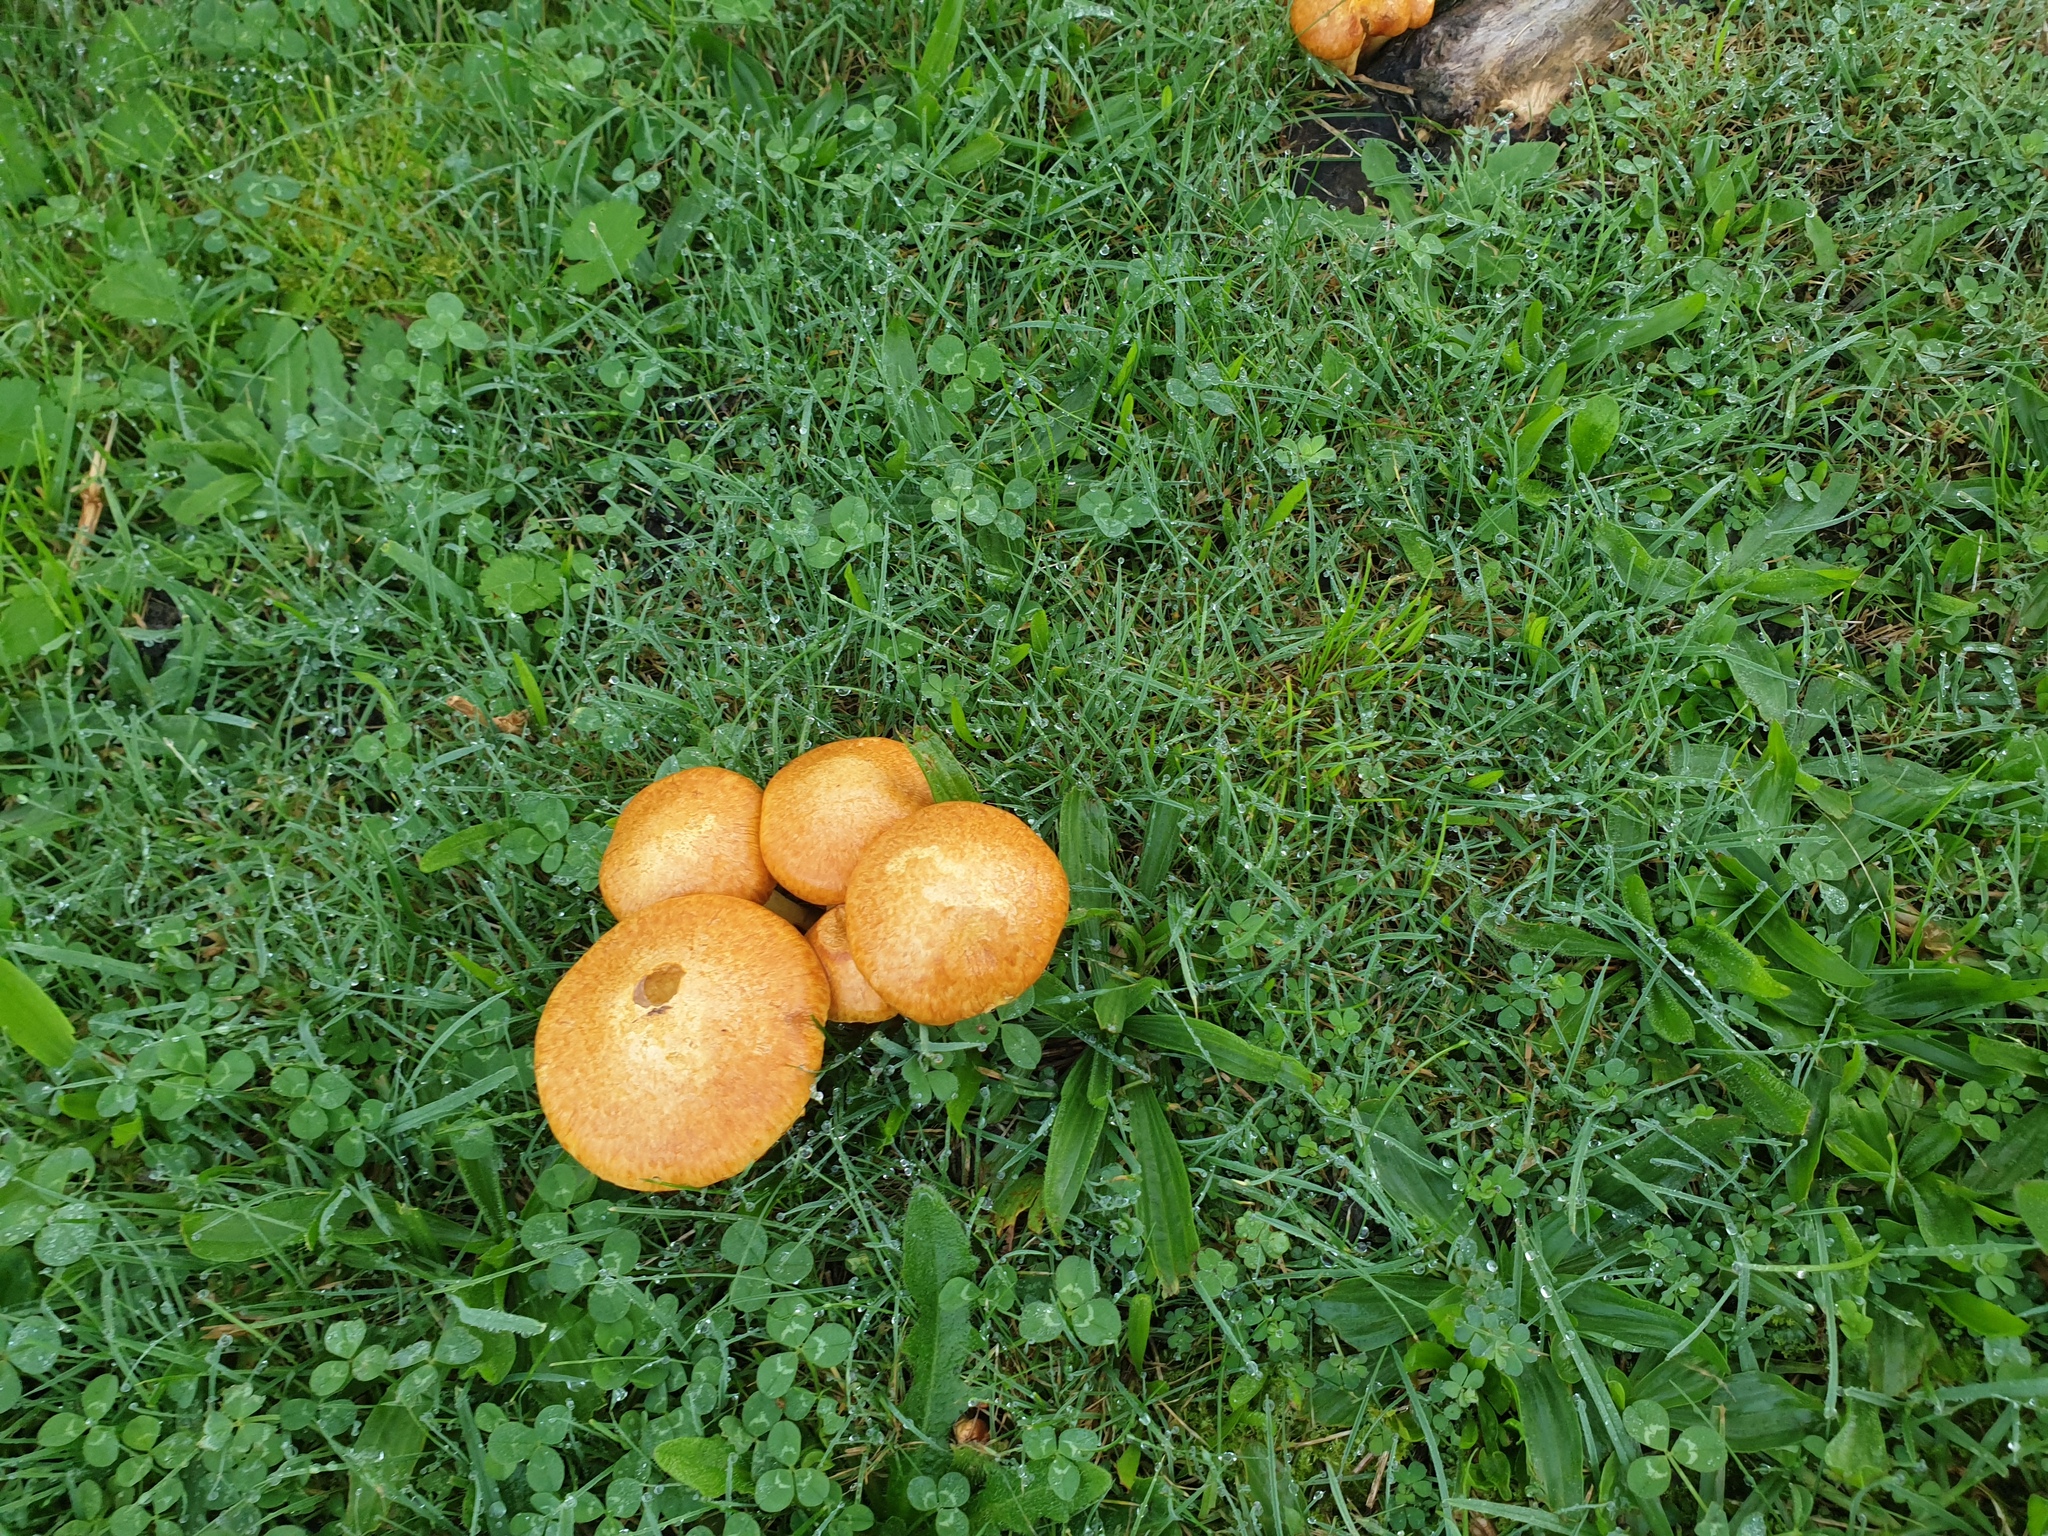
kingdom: Fungi
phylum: Basidiomycota
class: Agaricomycetes
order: Agaricales
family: Hymenogastraceae
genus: Gymnopilus
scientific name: Gymnopilus junonius
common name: Spectacular rustgill
